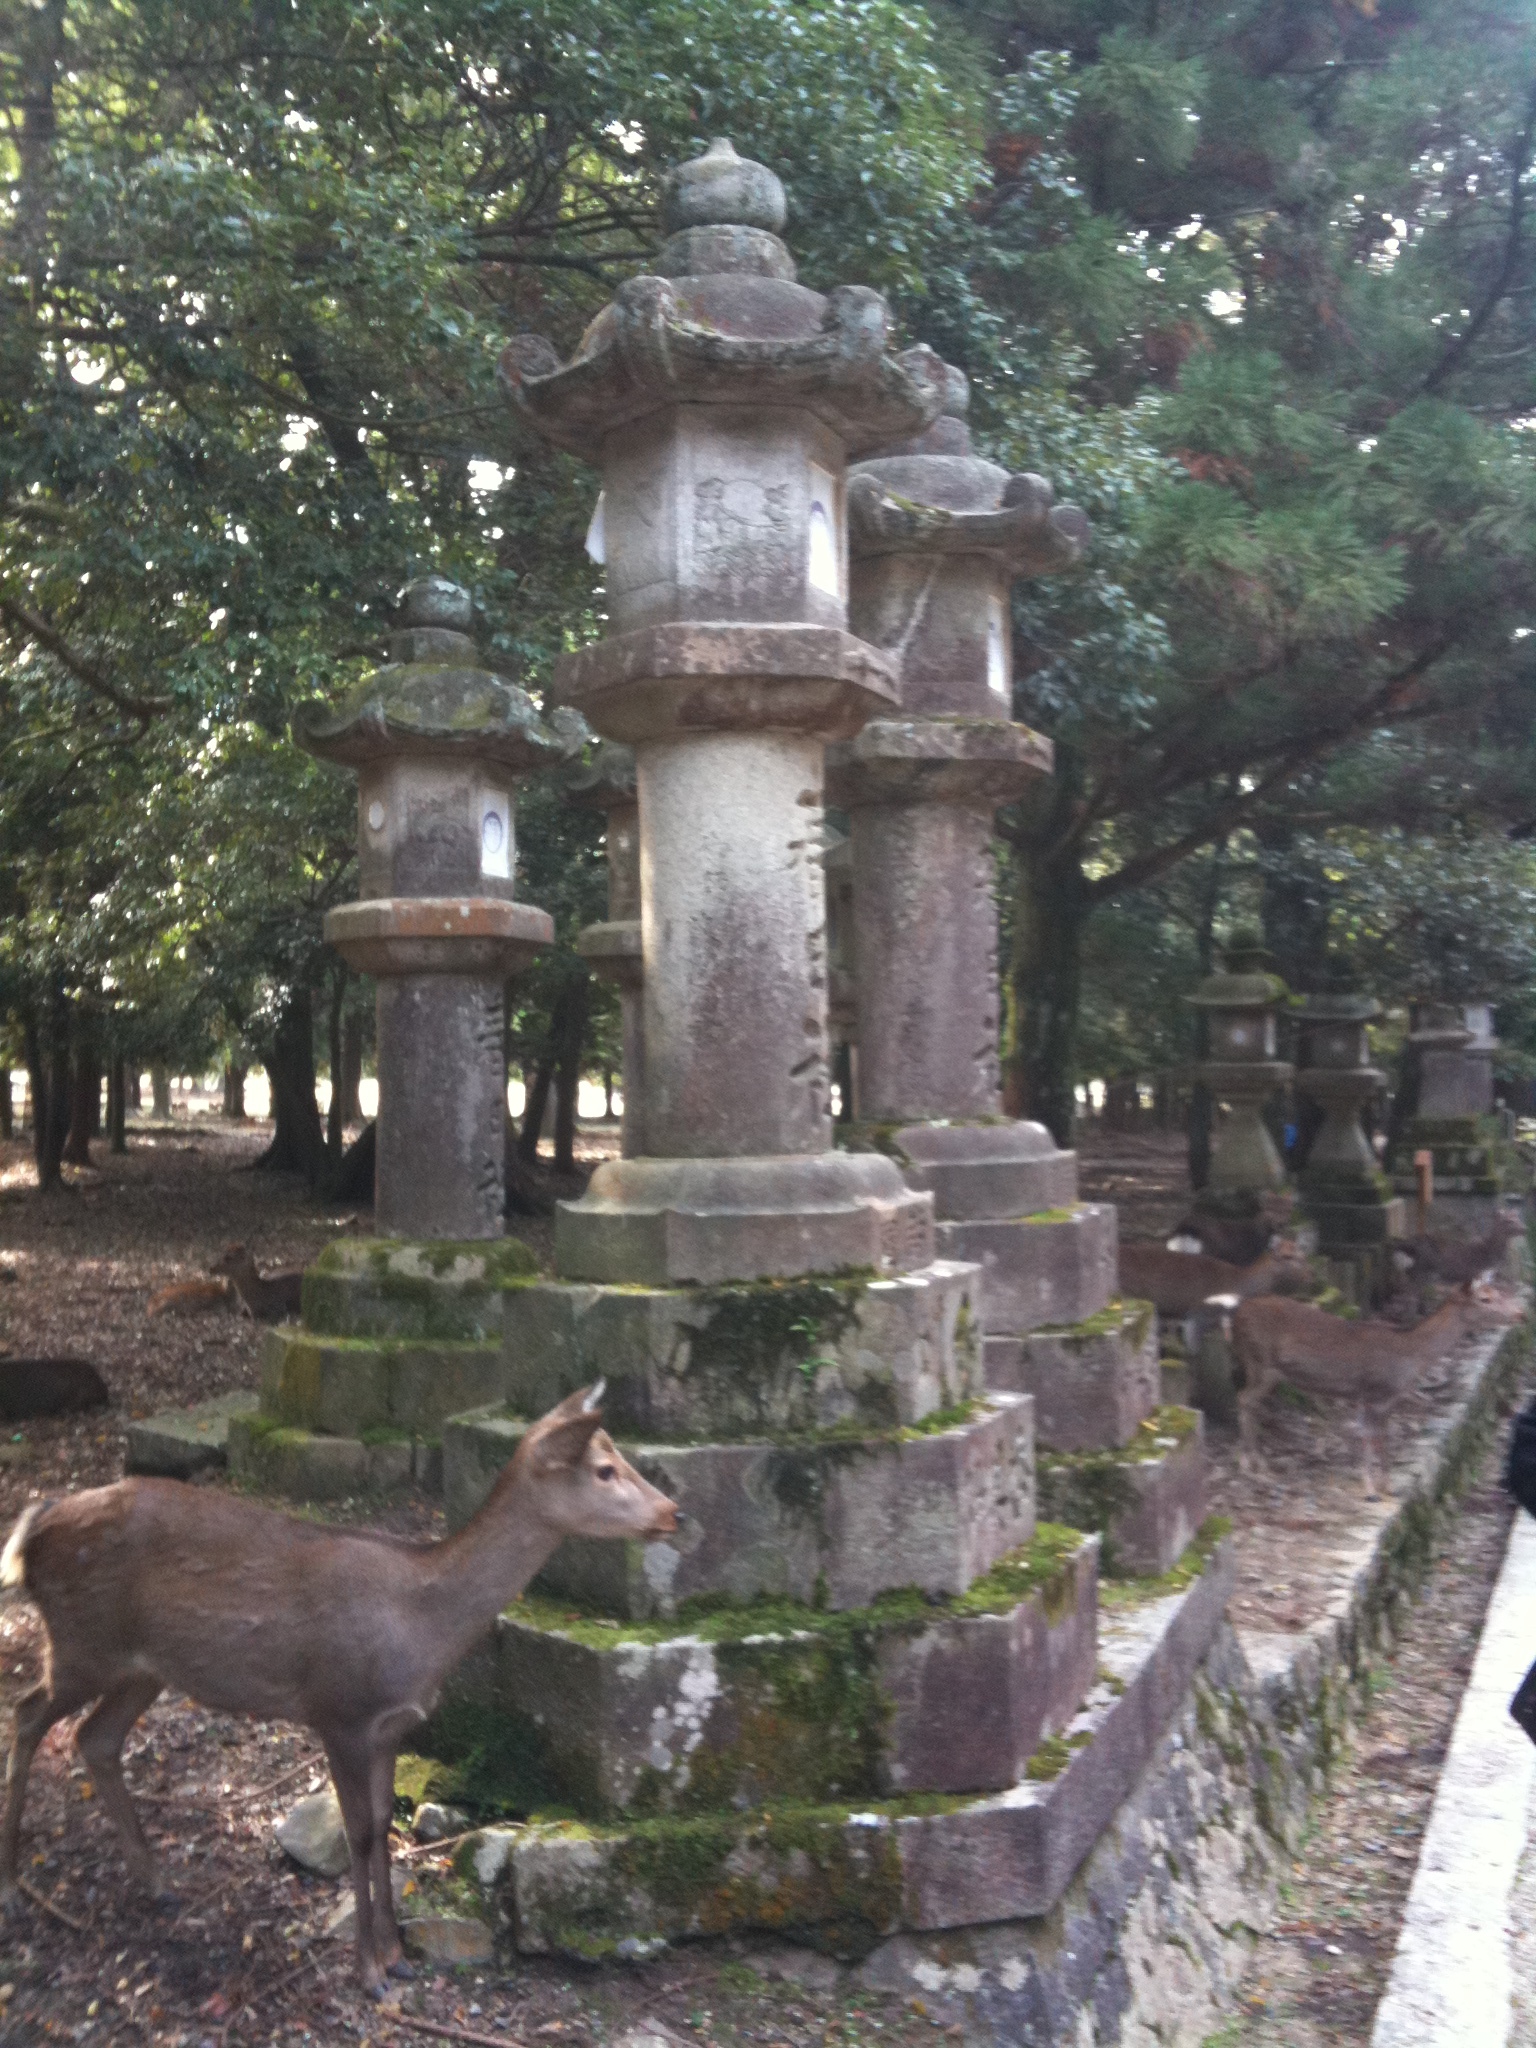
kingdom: Animalia
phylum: Chordata
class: Mammalia
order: Artiodactyla
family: Cervidae
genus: Cervus
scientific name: Cervus nippon
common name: Sika deer
